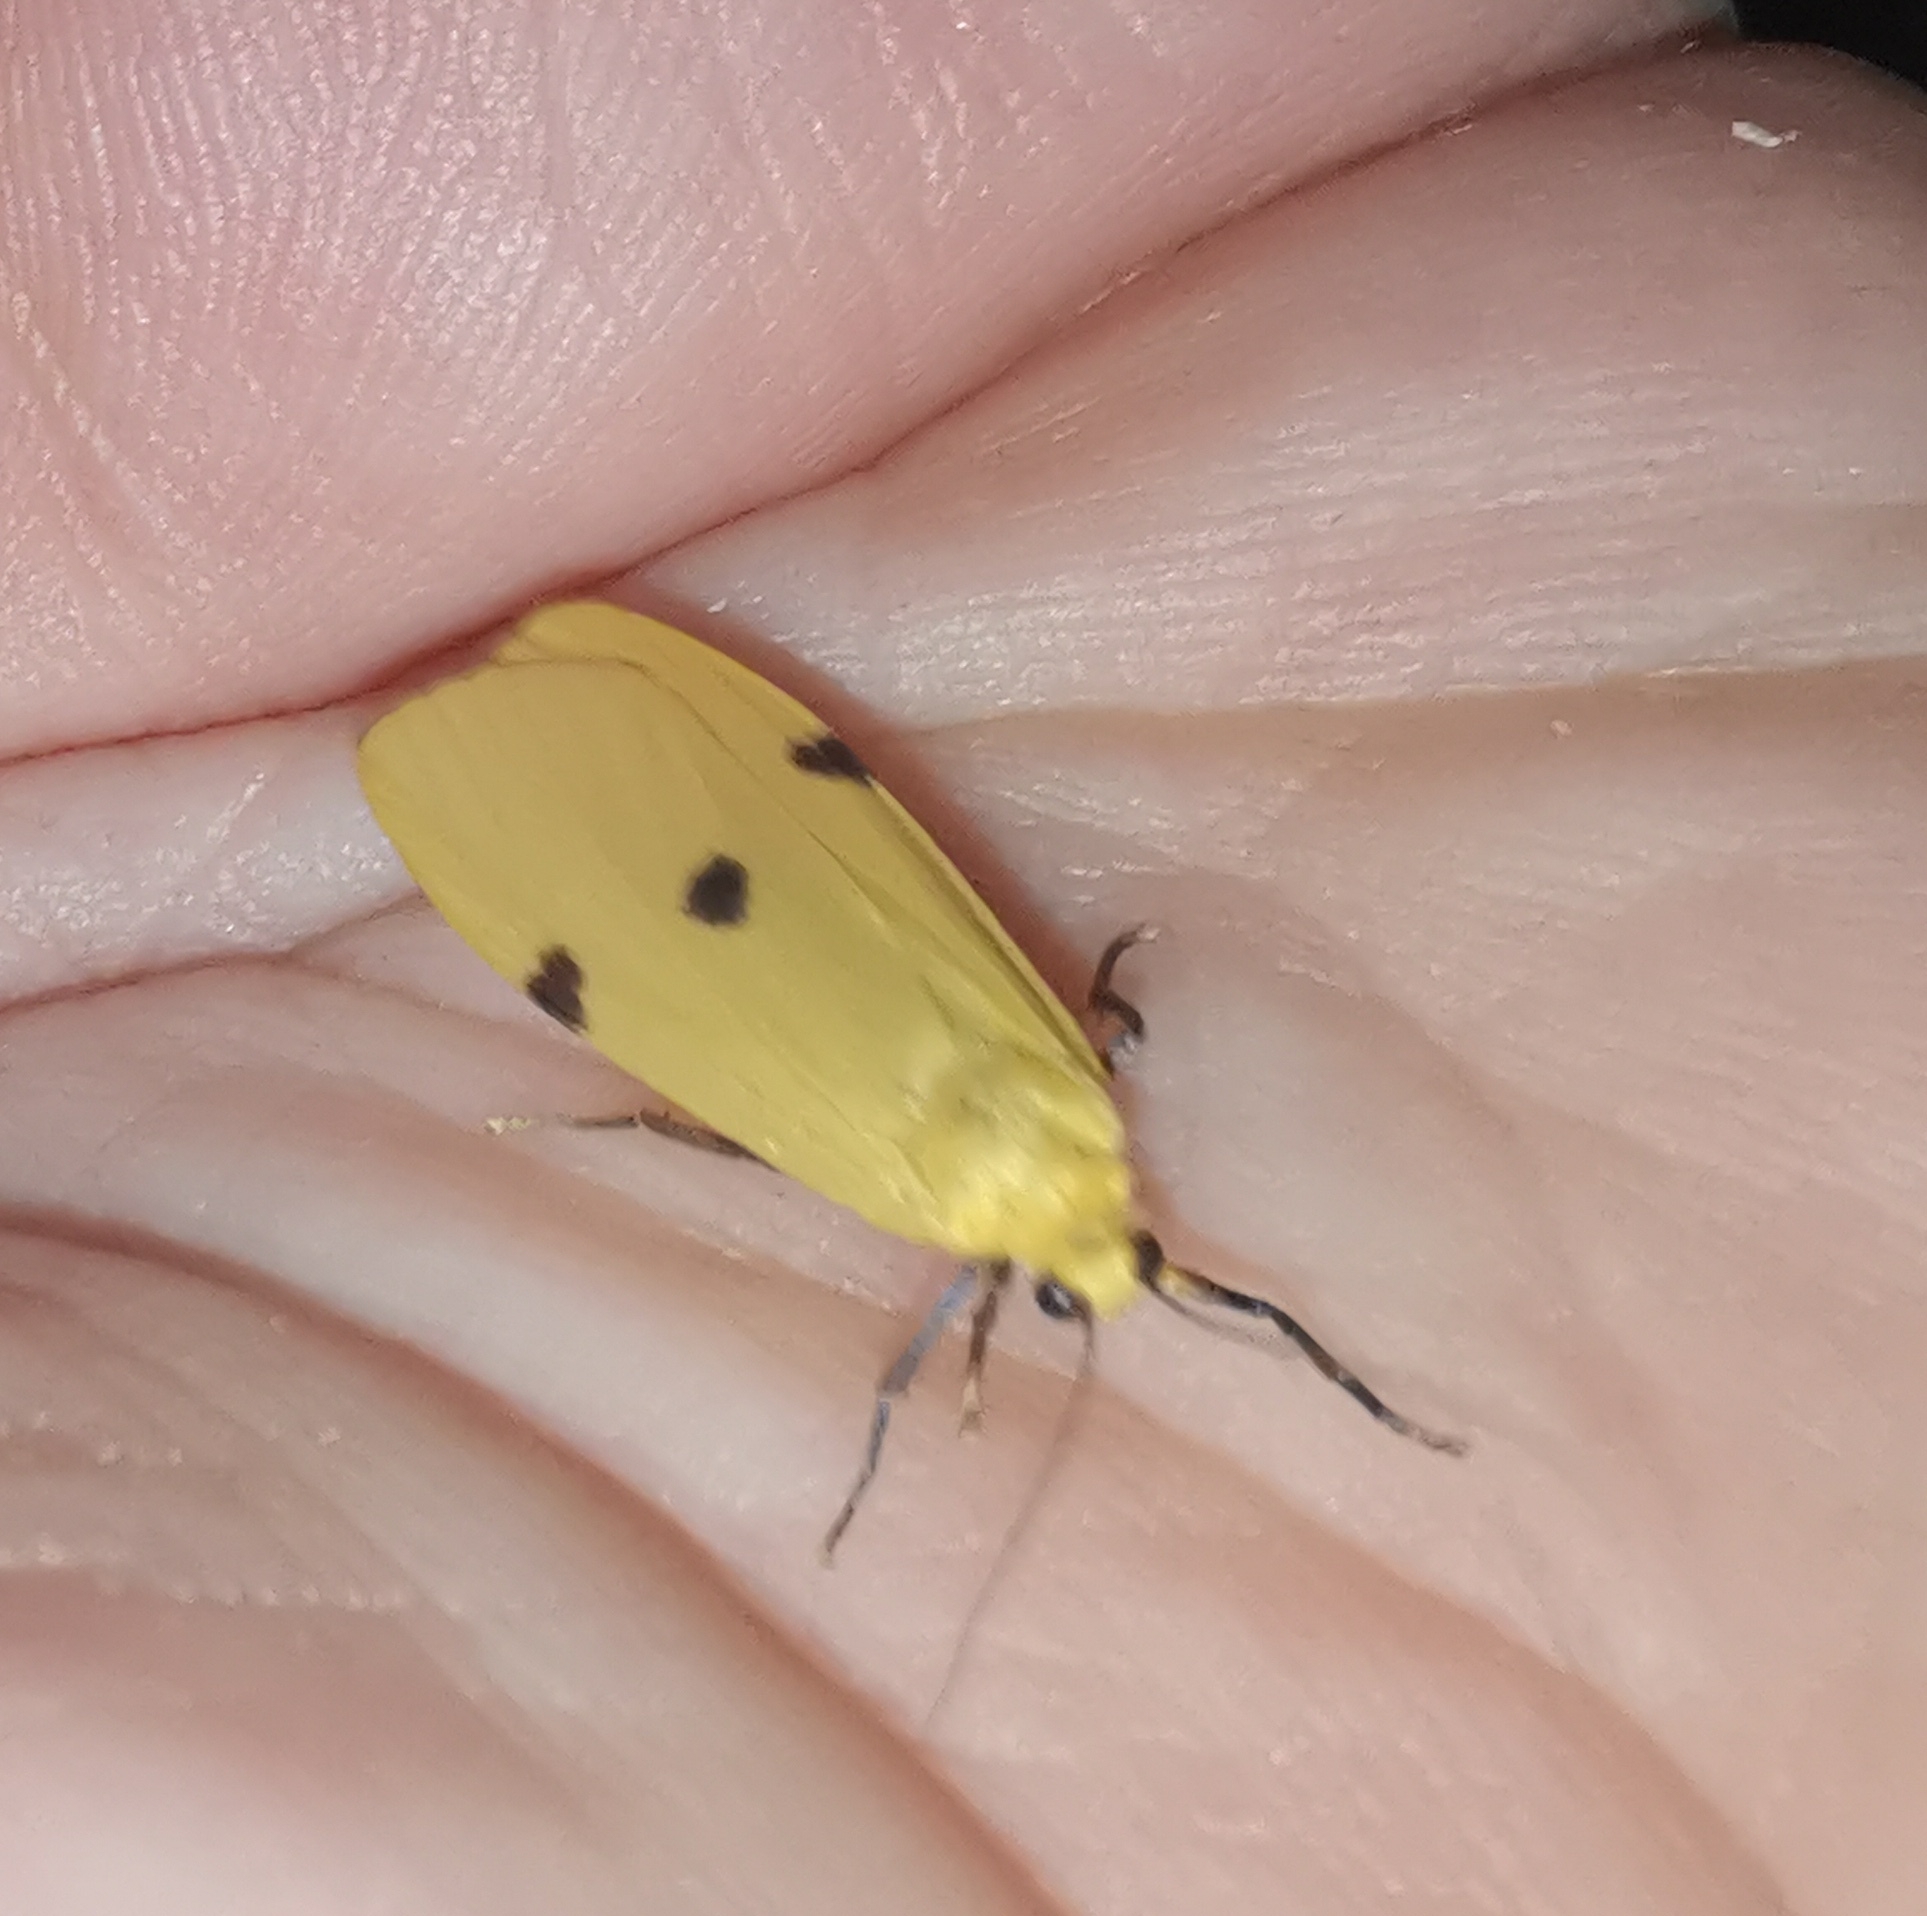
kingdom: Animalia
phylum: Arthropoda
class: Insecta
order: Lepidoptera
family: Erebidae
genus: Lithosia
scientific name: Lithosia quadra
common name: Four-spotted footman
